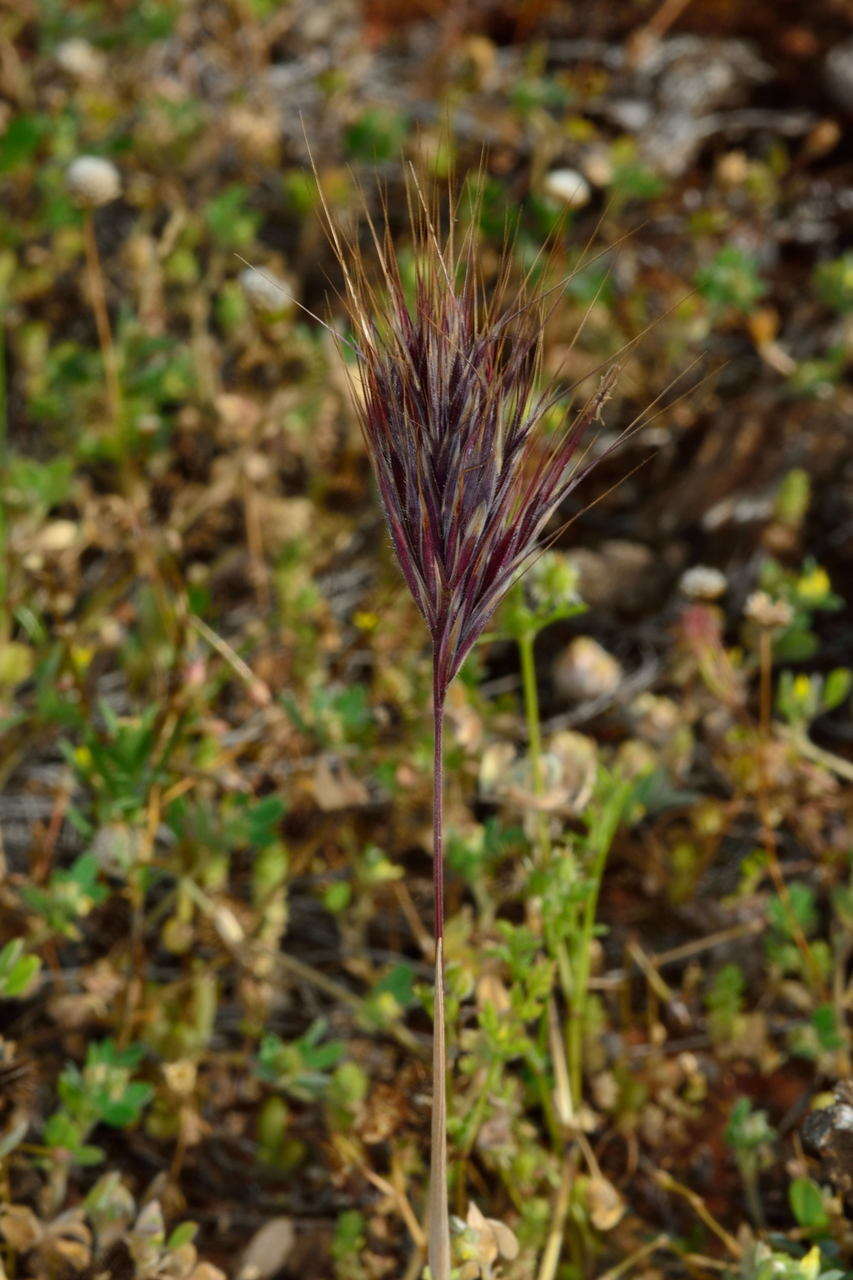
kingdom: Plantae
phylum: Tracheophyta
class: Liliopsida
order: Poales
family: Poaceae
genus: Bromus
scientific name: Bromus rubens
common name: Red brome
